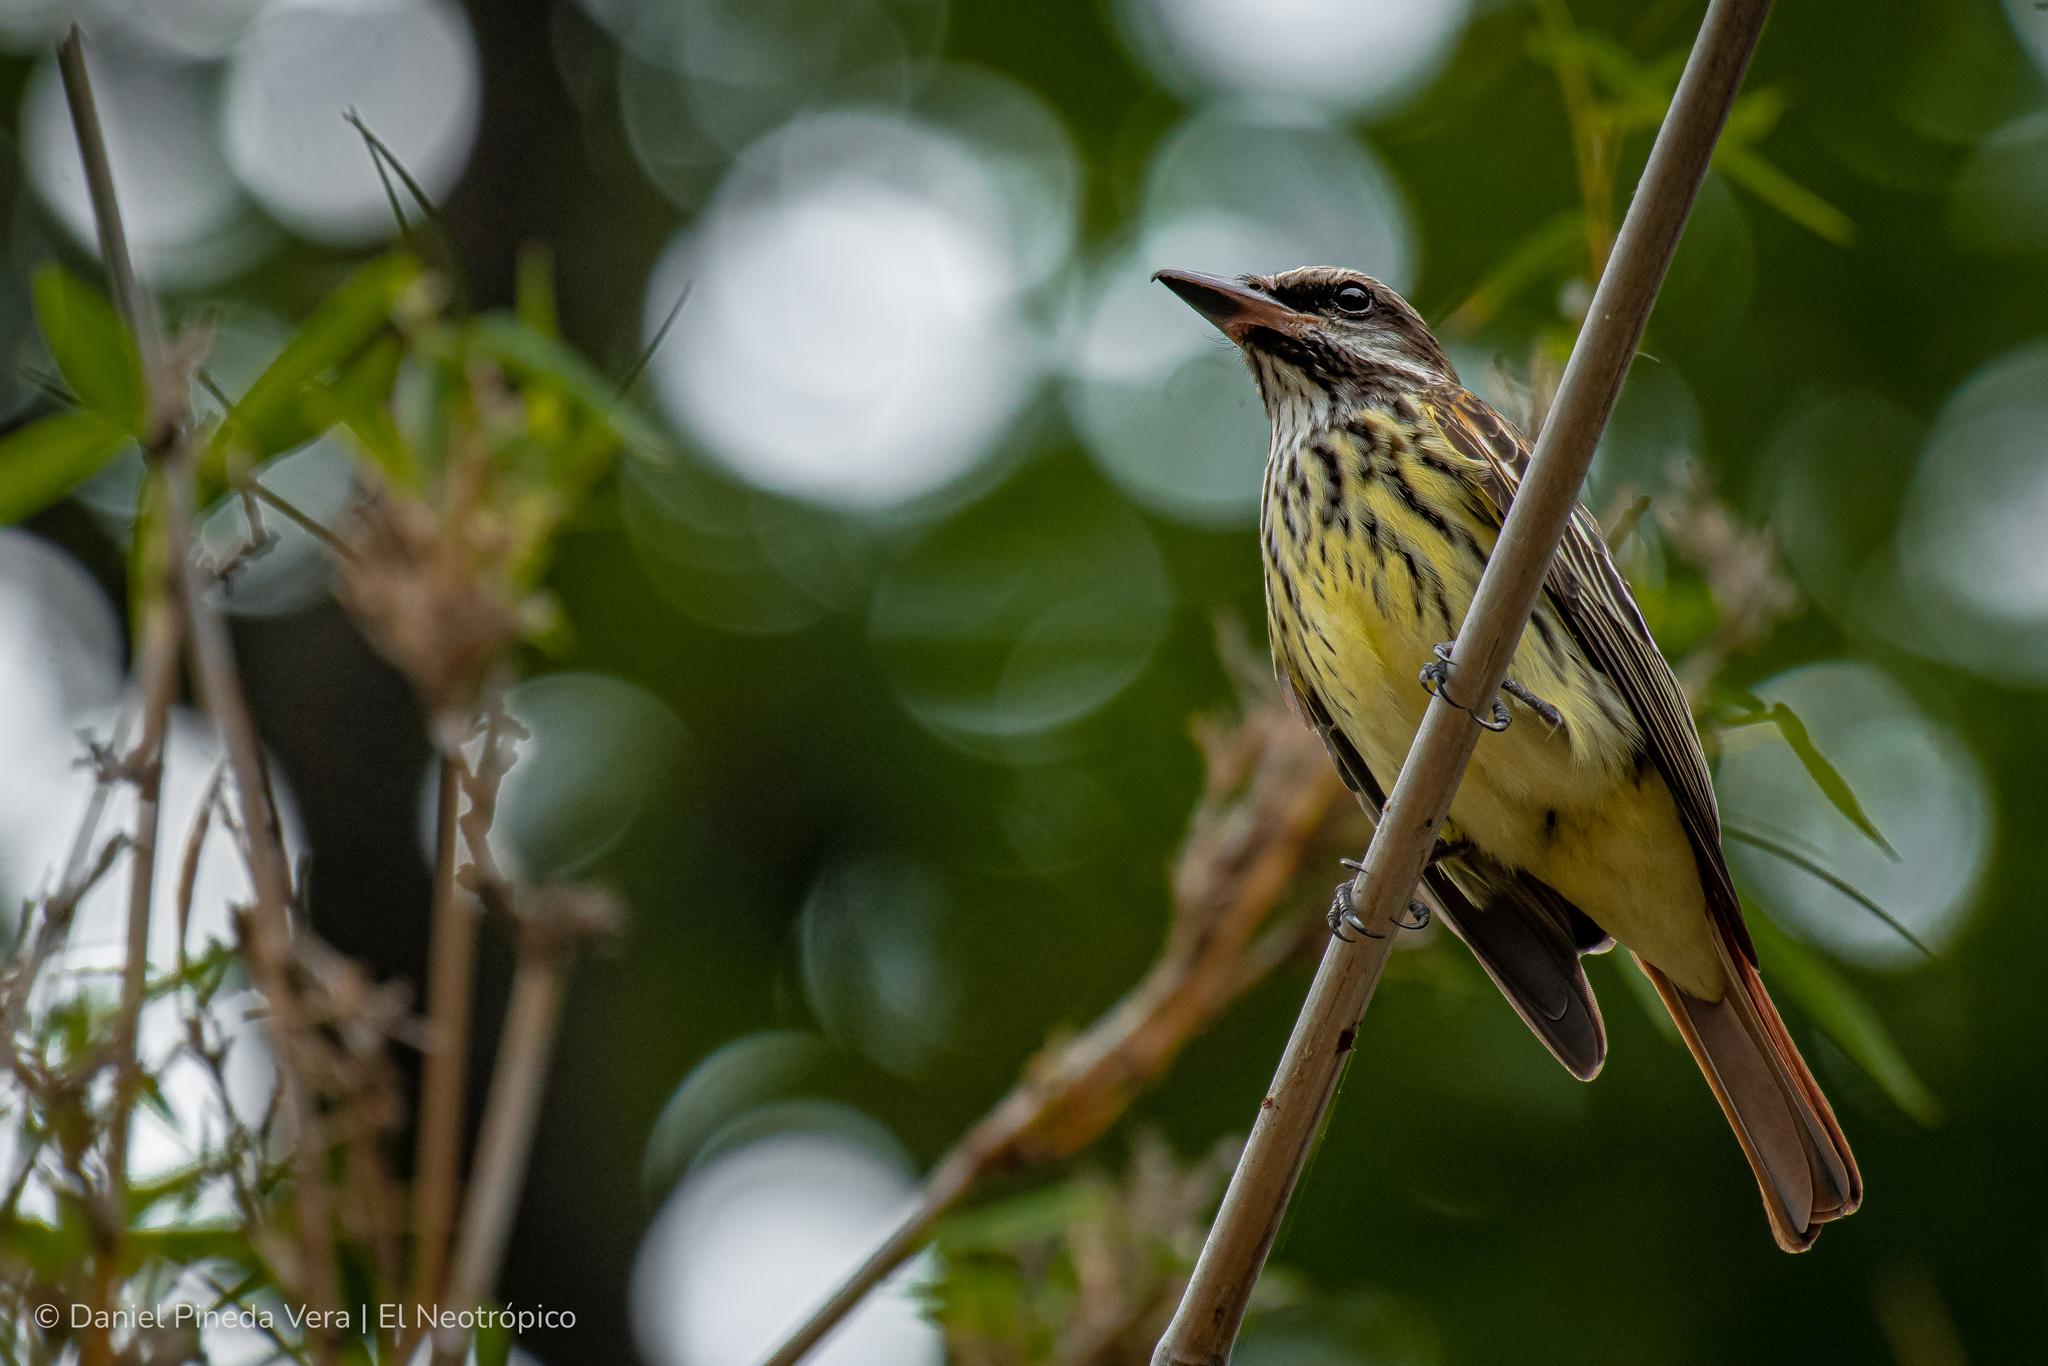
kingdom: Animalia
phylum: Chordata
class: Aves
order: Passeriformes
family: Tyrannidae
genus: Myiodynastes
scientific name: Myiodynastes luteiventris
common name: Sulphur-bellied flycatcher
